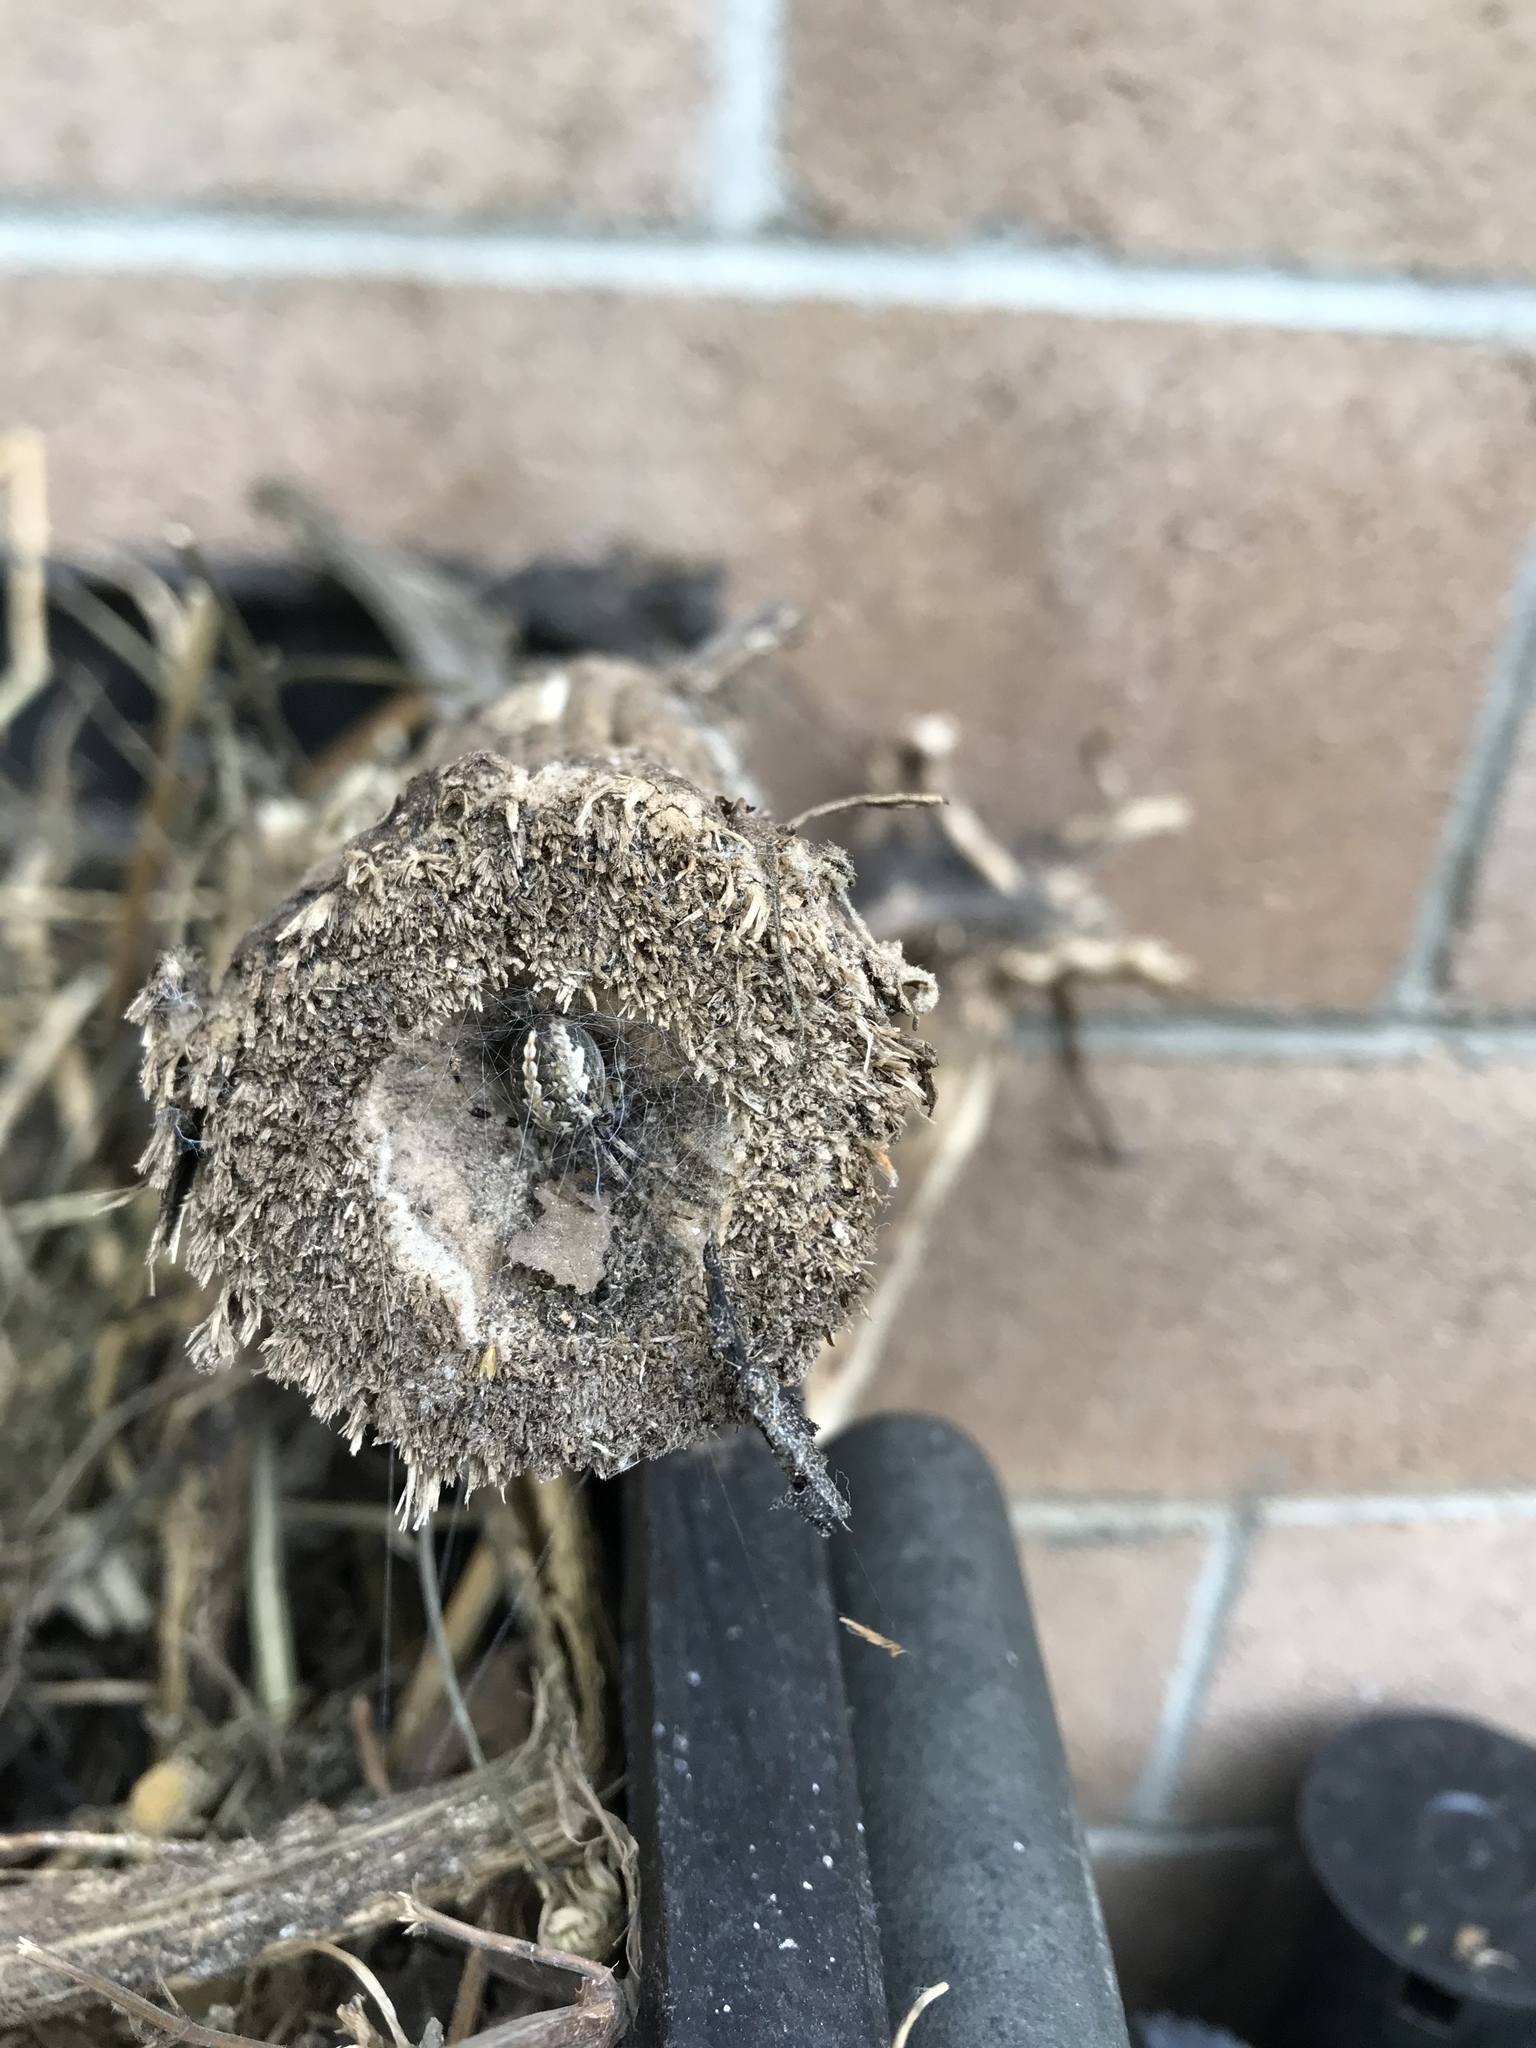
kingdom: Animalia
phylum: Arthropoda
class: Arachnida
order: Araneae
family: Araneidae
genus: Neoscona
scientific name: Neoscona oaxacensis
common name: Orb weavers
